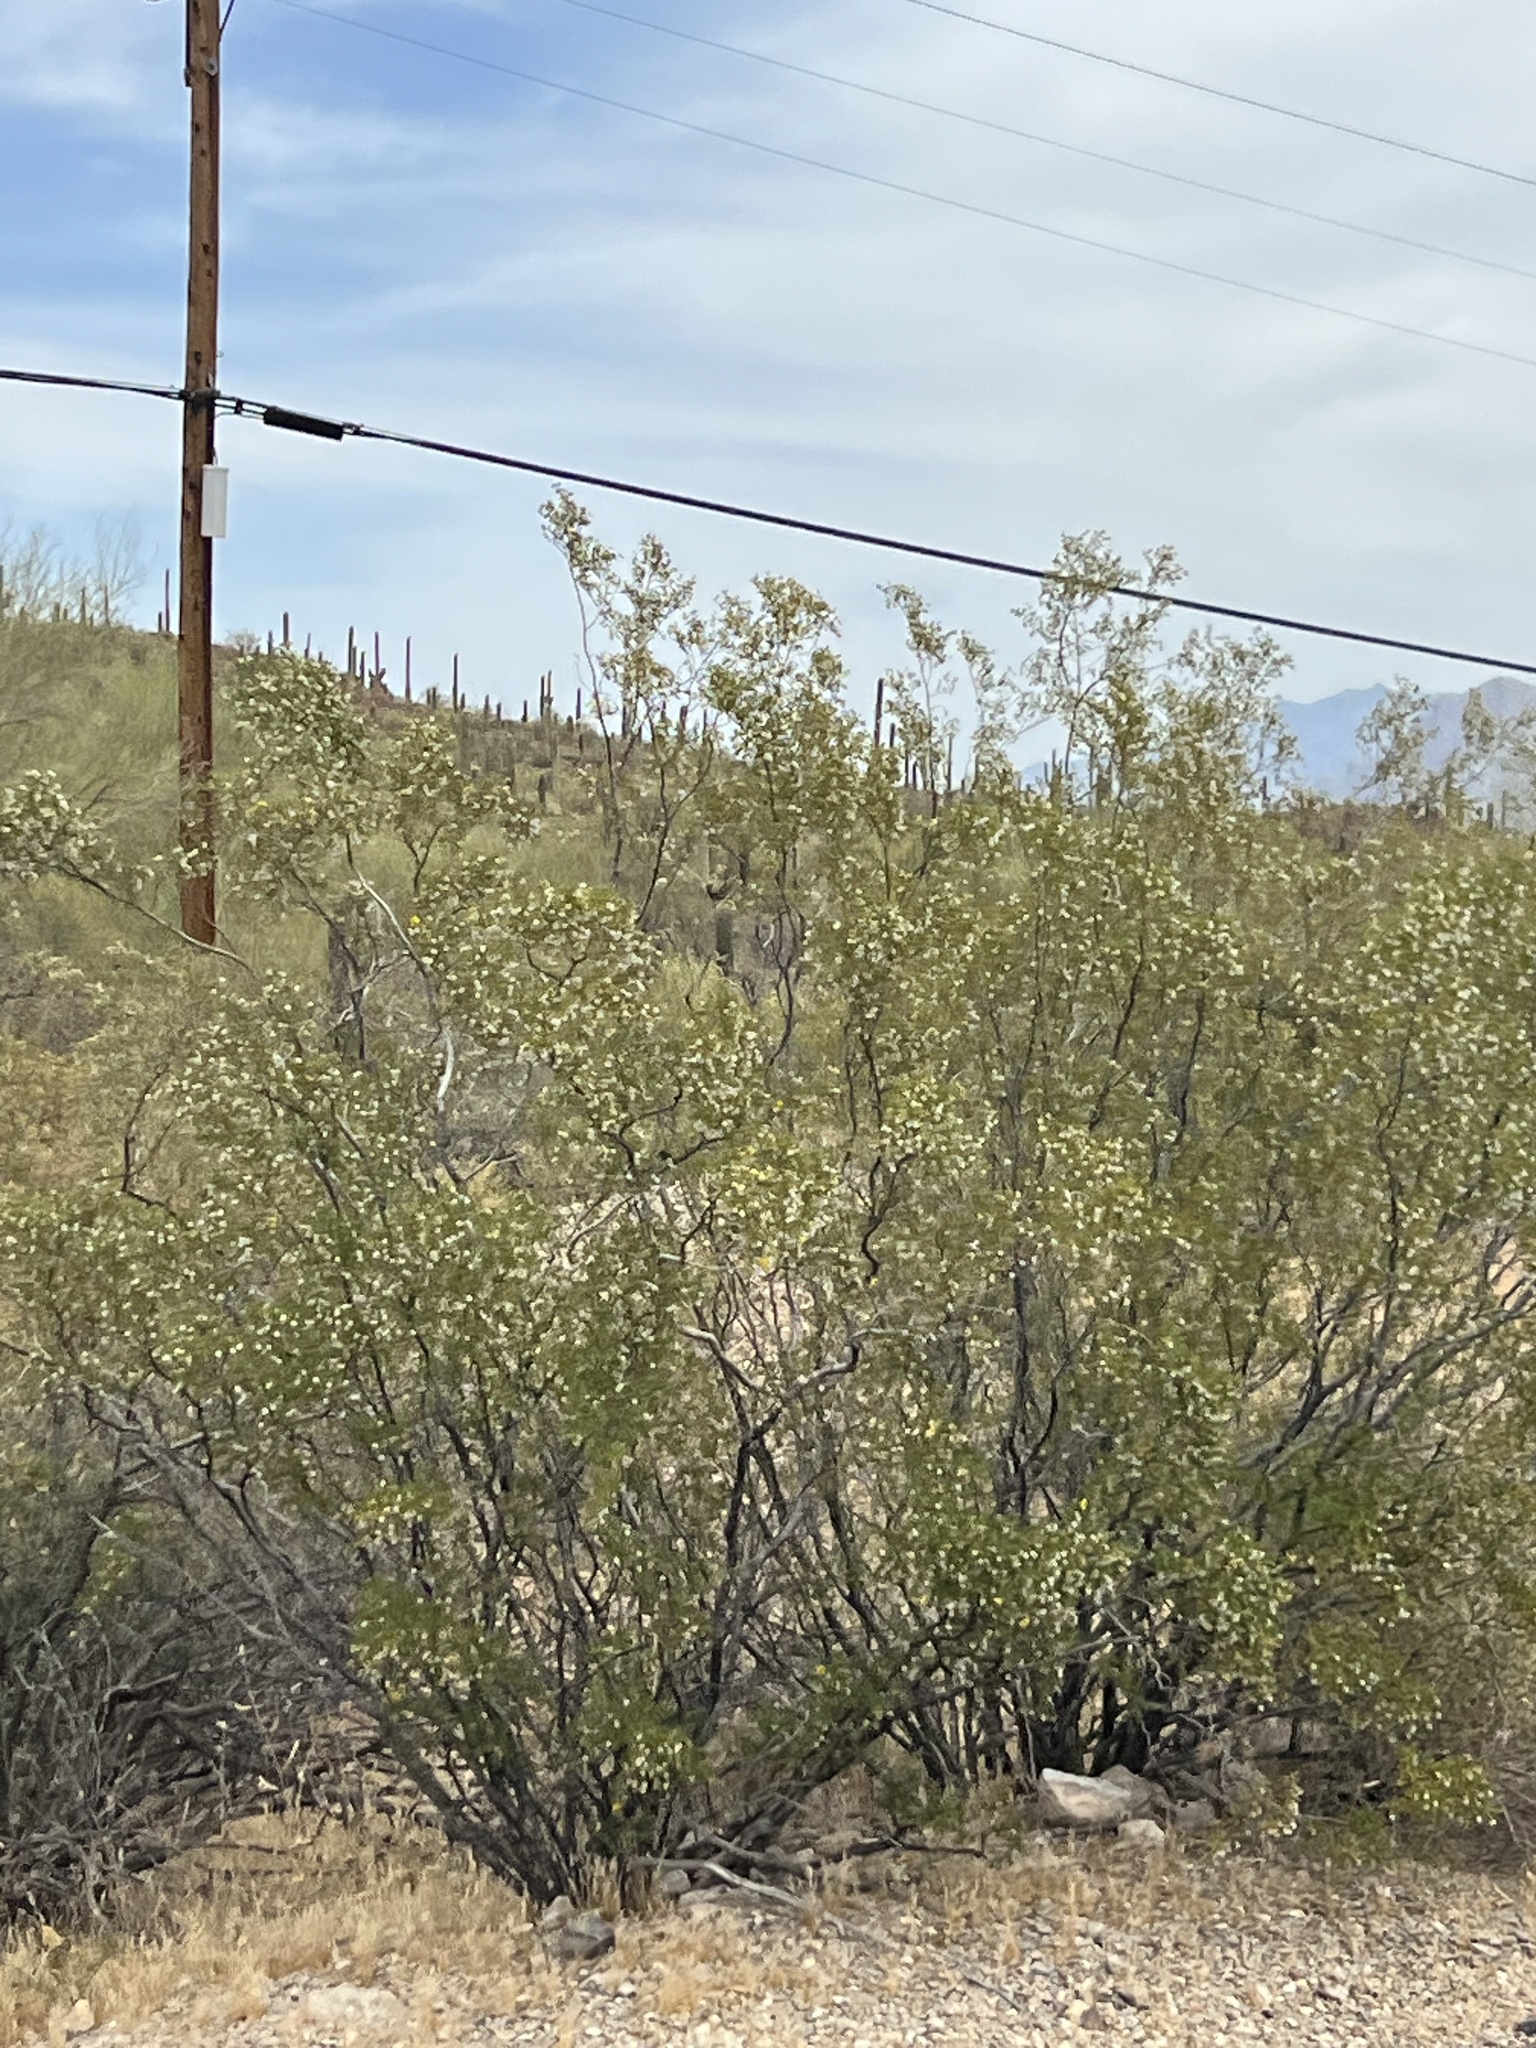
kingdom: Plantae
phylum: Tracheophyta
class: Magnoliopsida
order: Zygophyllales
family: Zygophyllaceae
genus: Larrea
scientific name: Larrea tridentata
